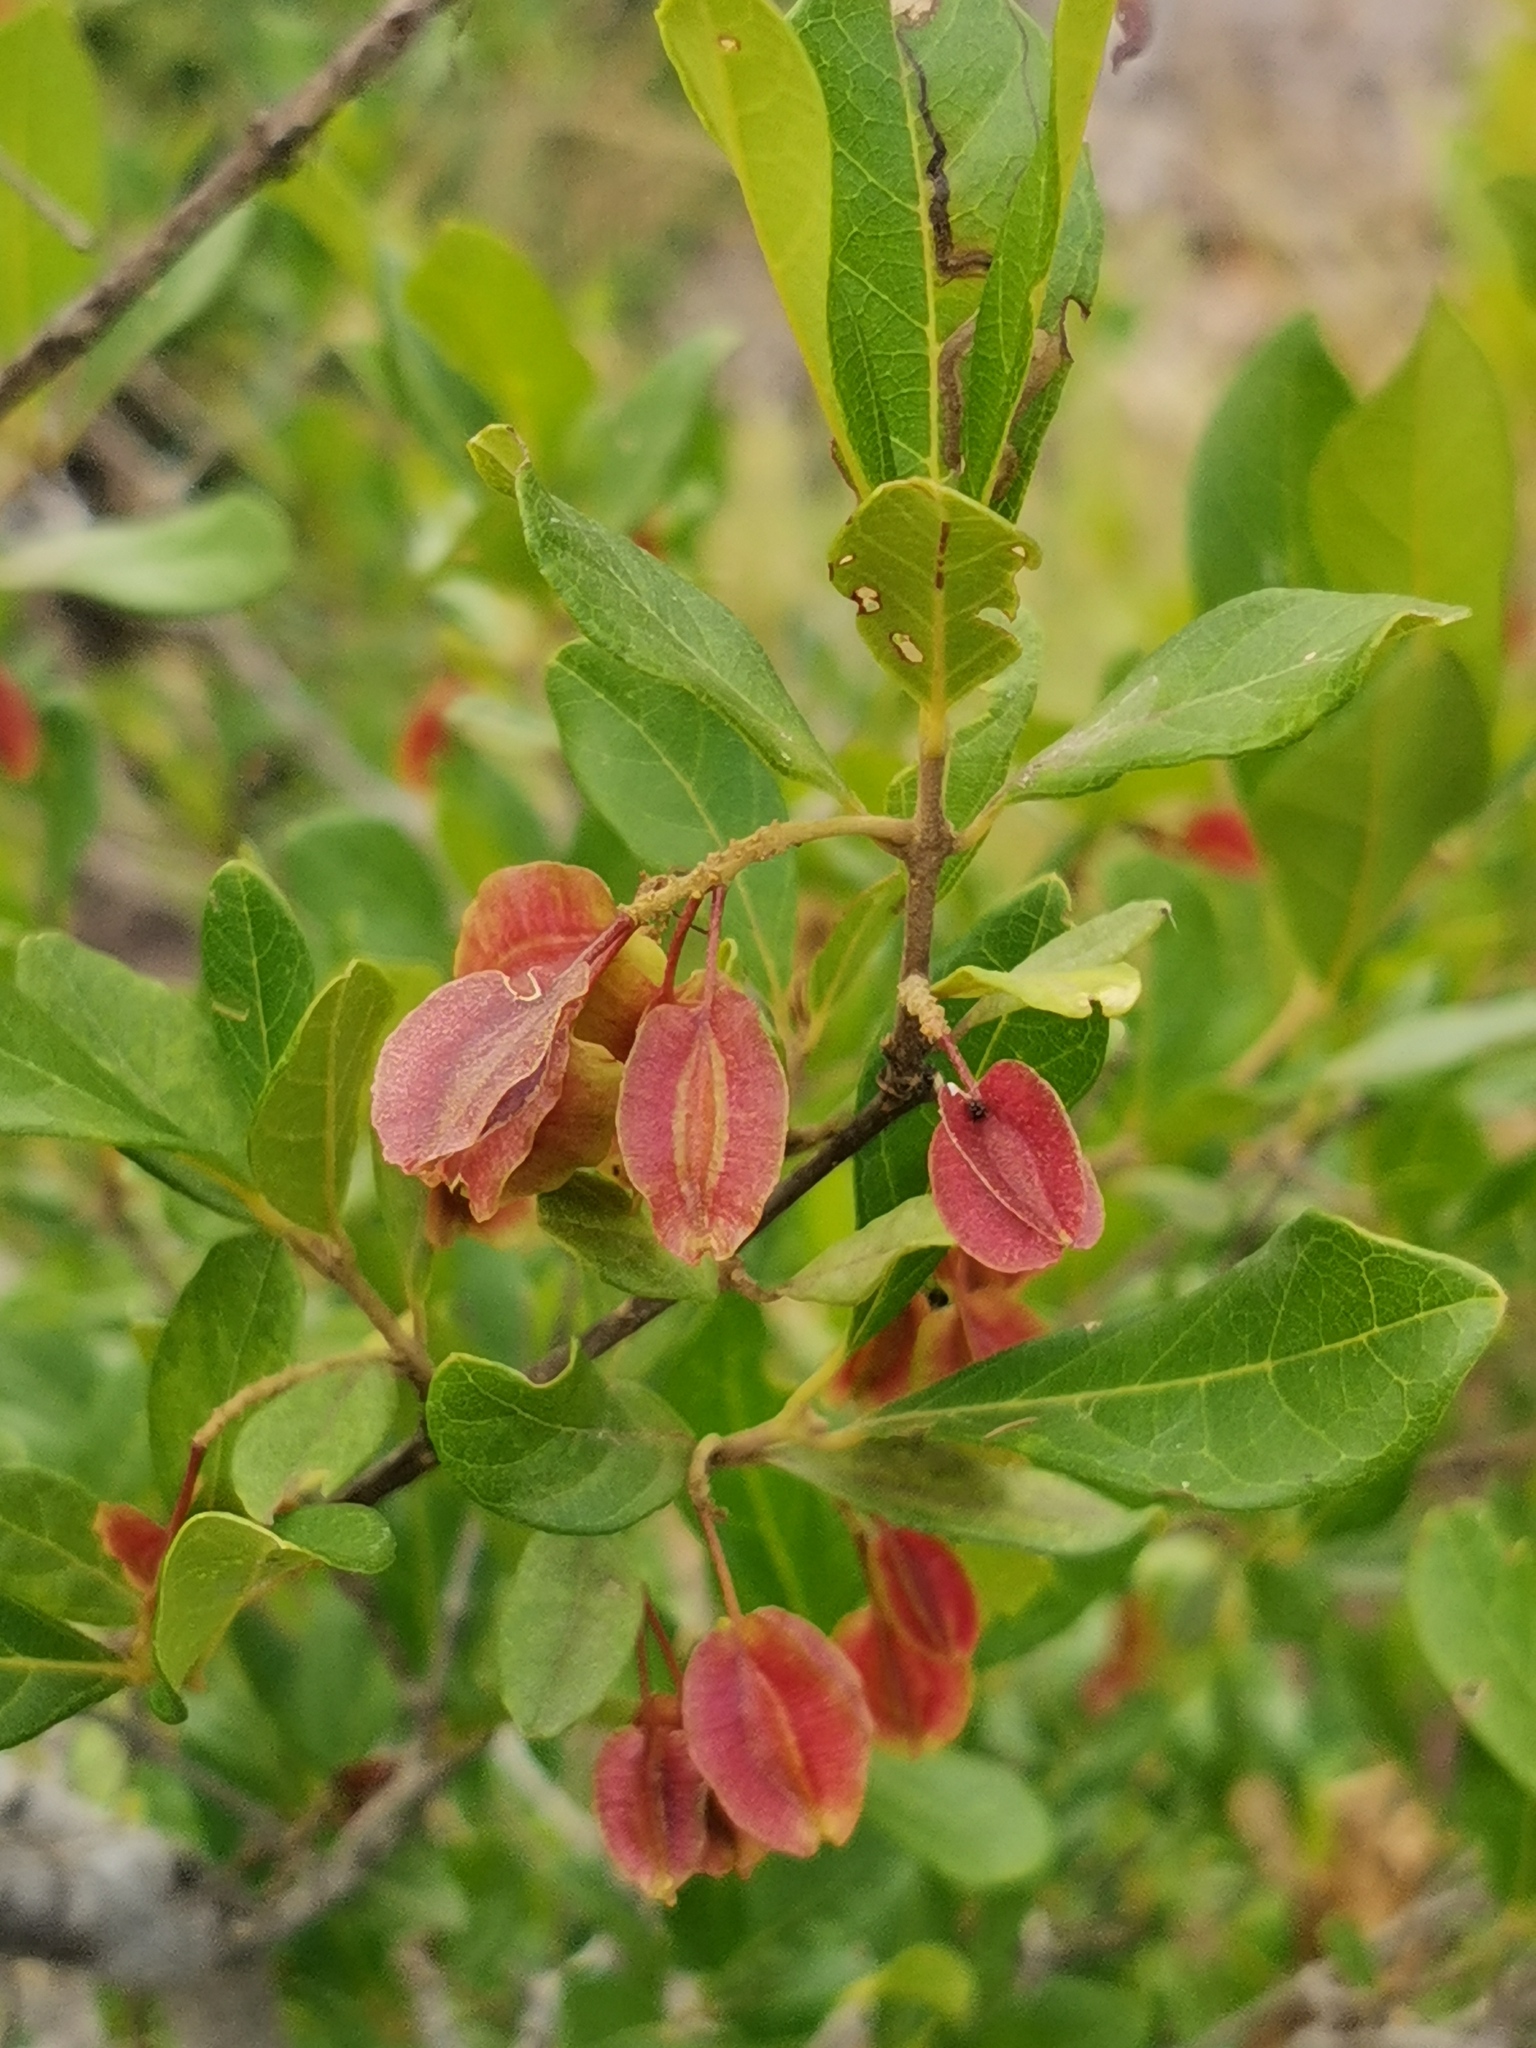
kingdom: Plantae
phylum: Tracheophyta
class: Magnoliopsida
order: Myrtales
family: Combretaceae
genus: Combretum
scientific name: Combretum kraussii
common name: Forest bushwillow
